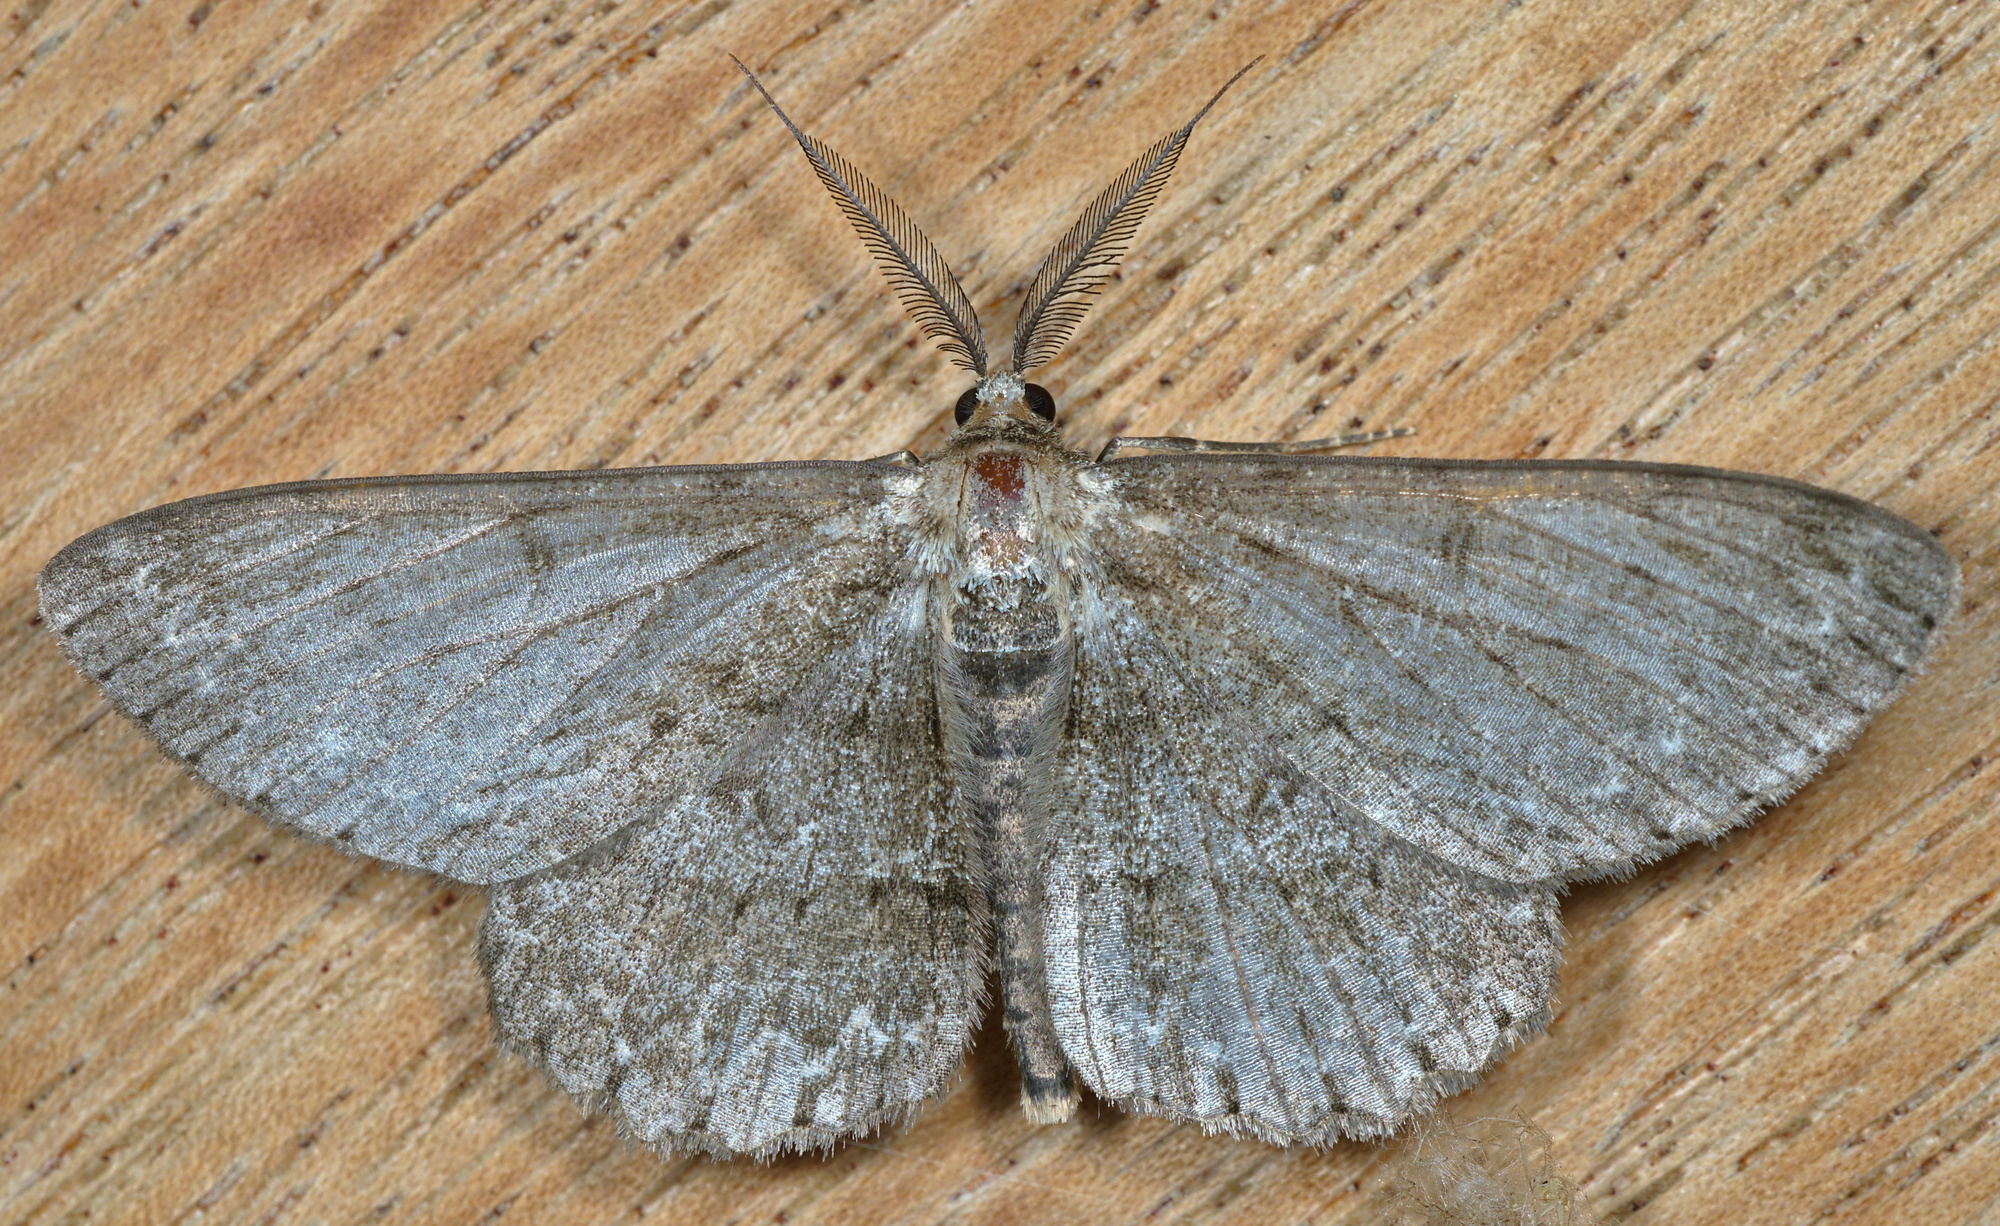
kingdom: Animalia
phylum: Arthropoda
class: Insecta
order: Lepidoptera
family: Geometridae
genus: Hypomecis
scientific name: Hypomecis punctinalis
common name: Pale oak beauty
